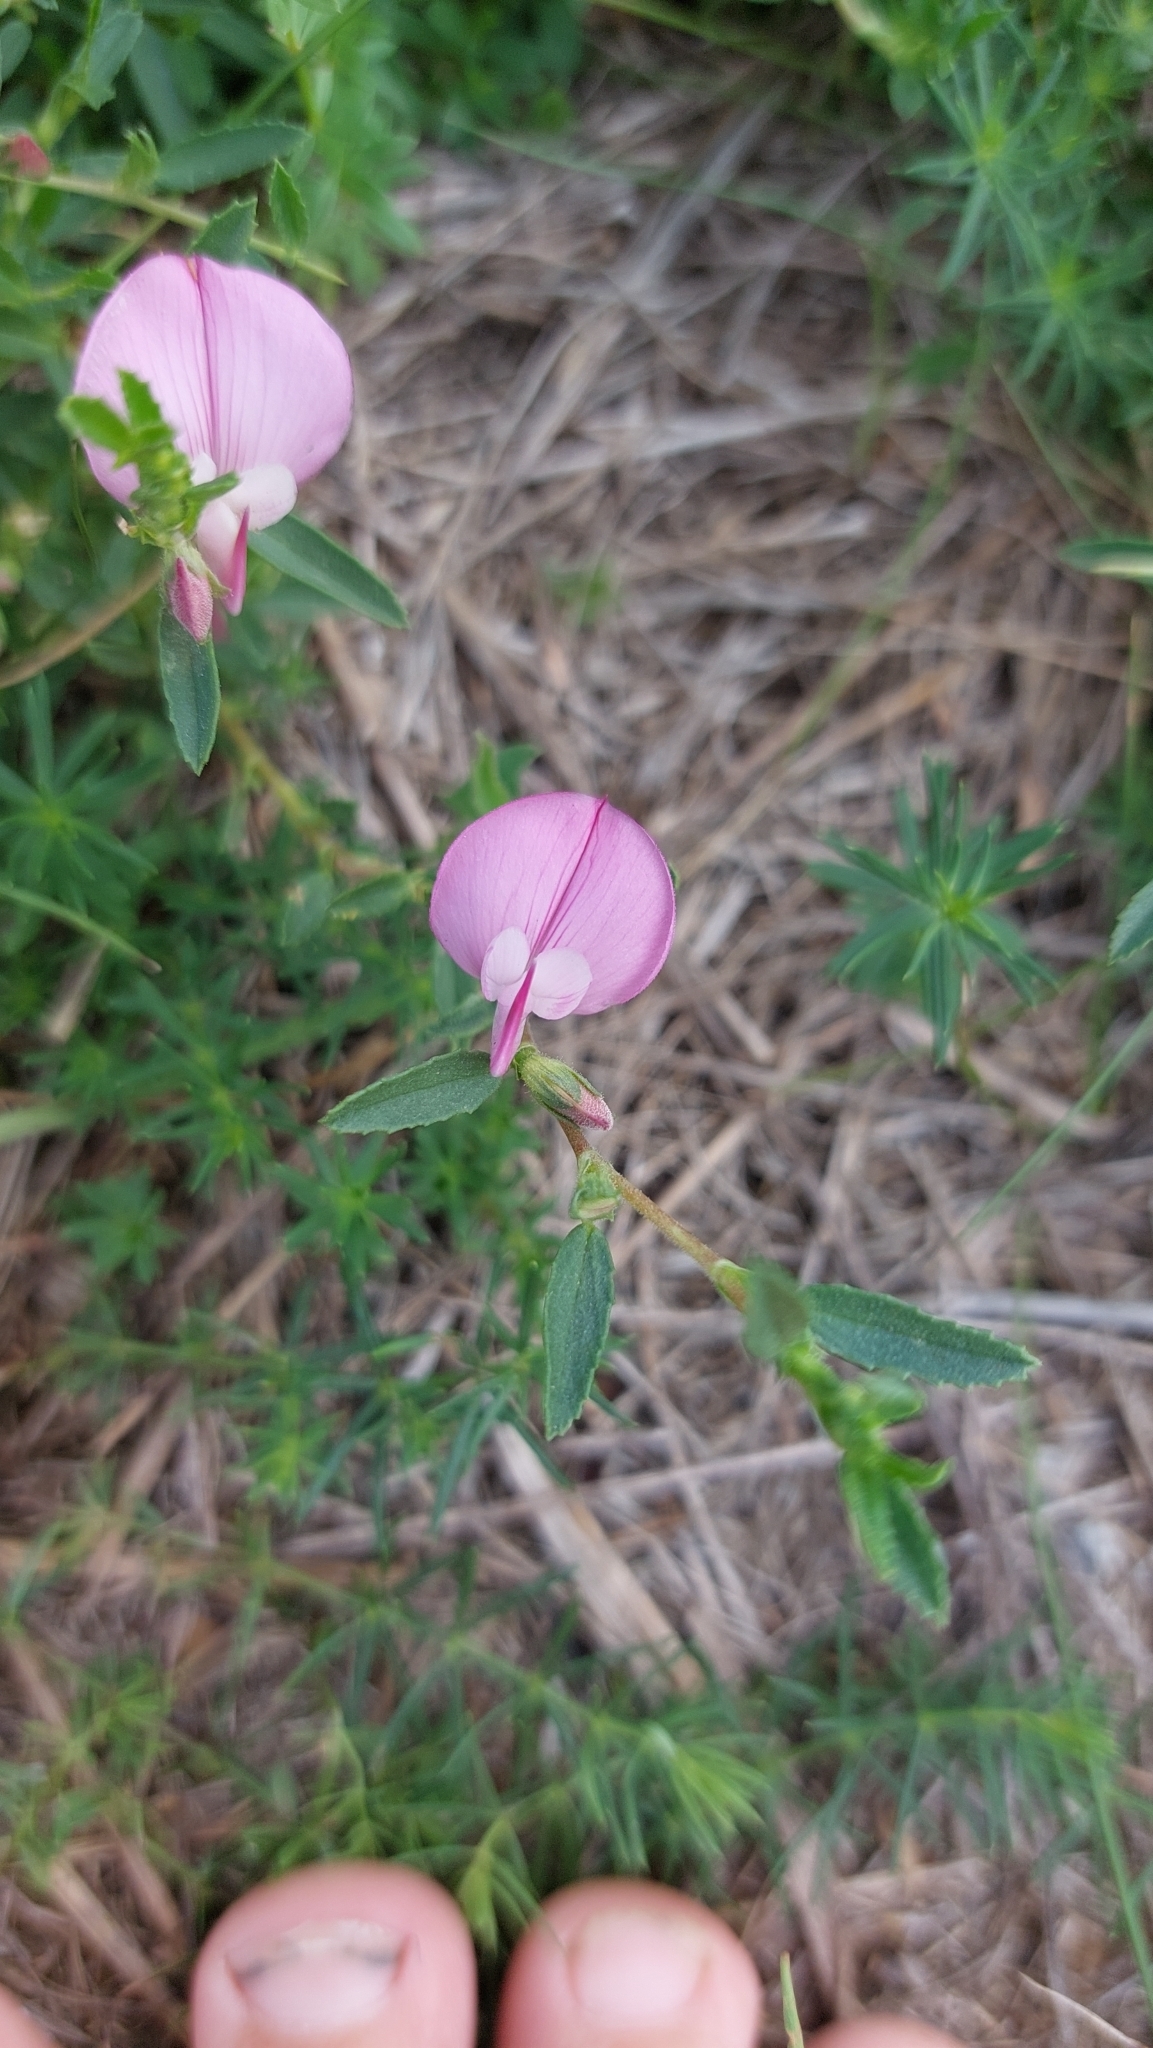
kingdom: Plantae
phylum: Tracheophyta
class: Magnoliopsida
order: Fabales
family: Fabaceae
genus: Ononis
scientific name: Ononis spinosa
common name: Spiny restharrow
